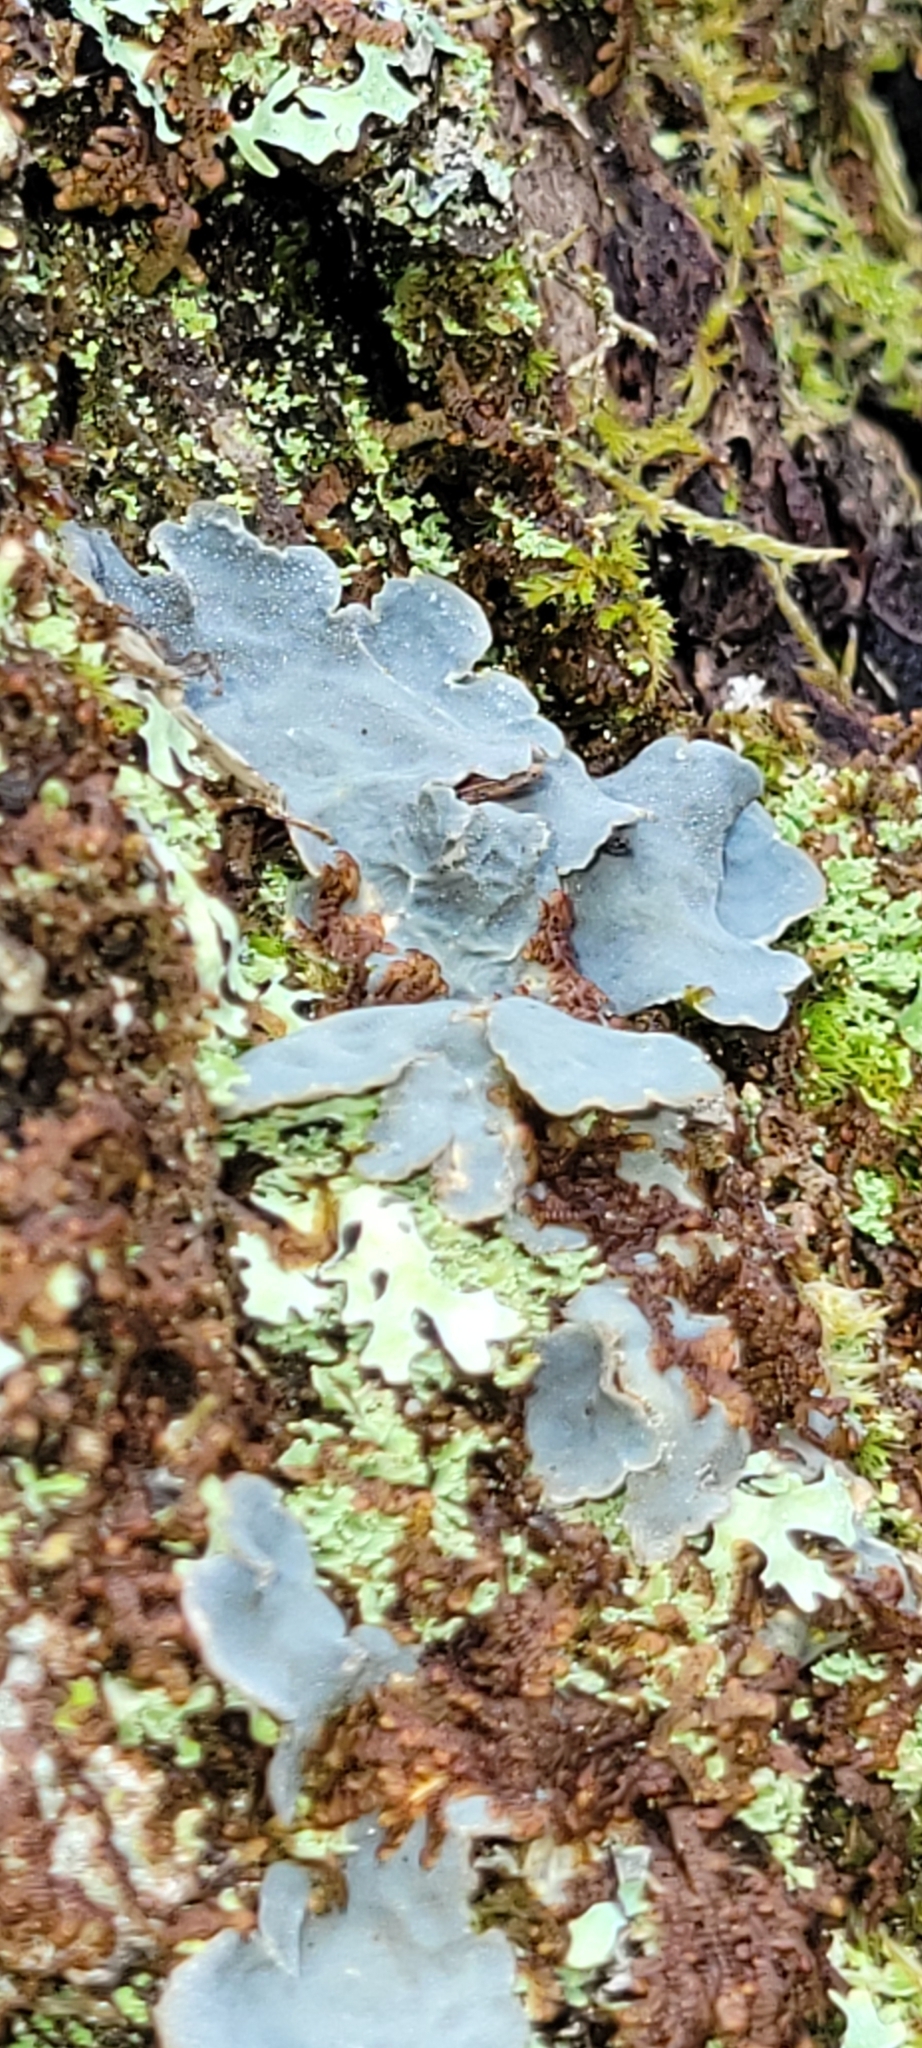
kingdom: Fungi
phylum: Ascomycota
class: Lecanoromycetes
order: Peltigerales
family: Lobariaceae
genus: Lobarina
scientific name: Lobarina scrobiculata
